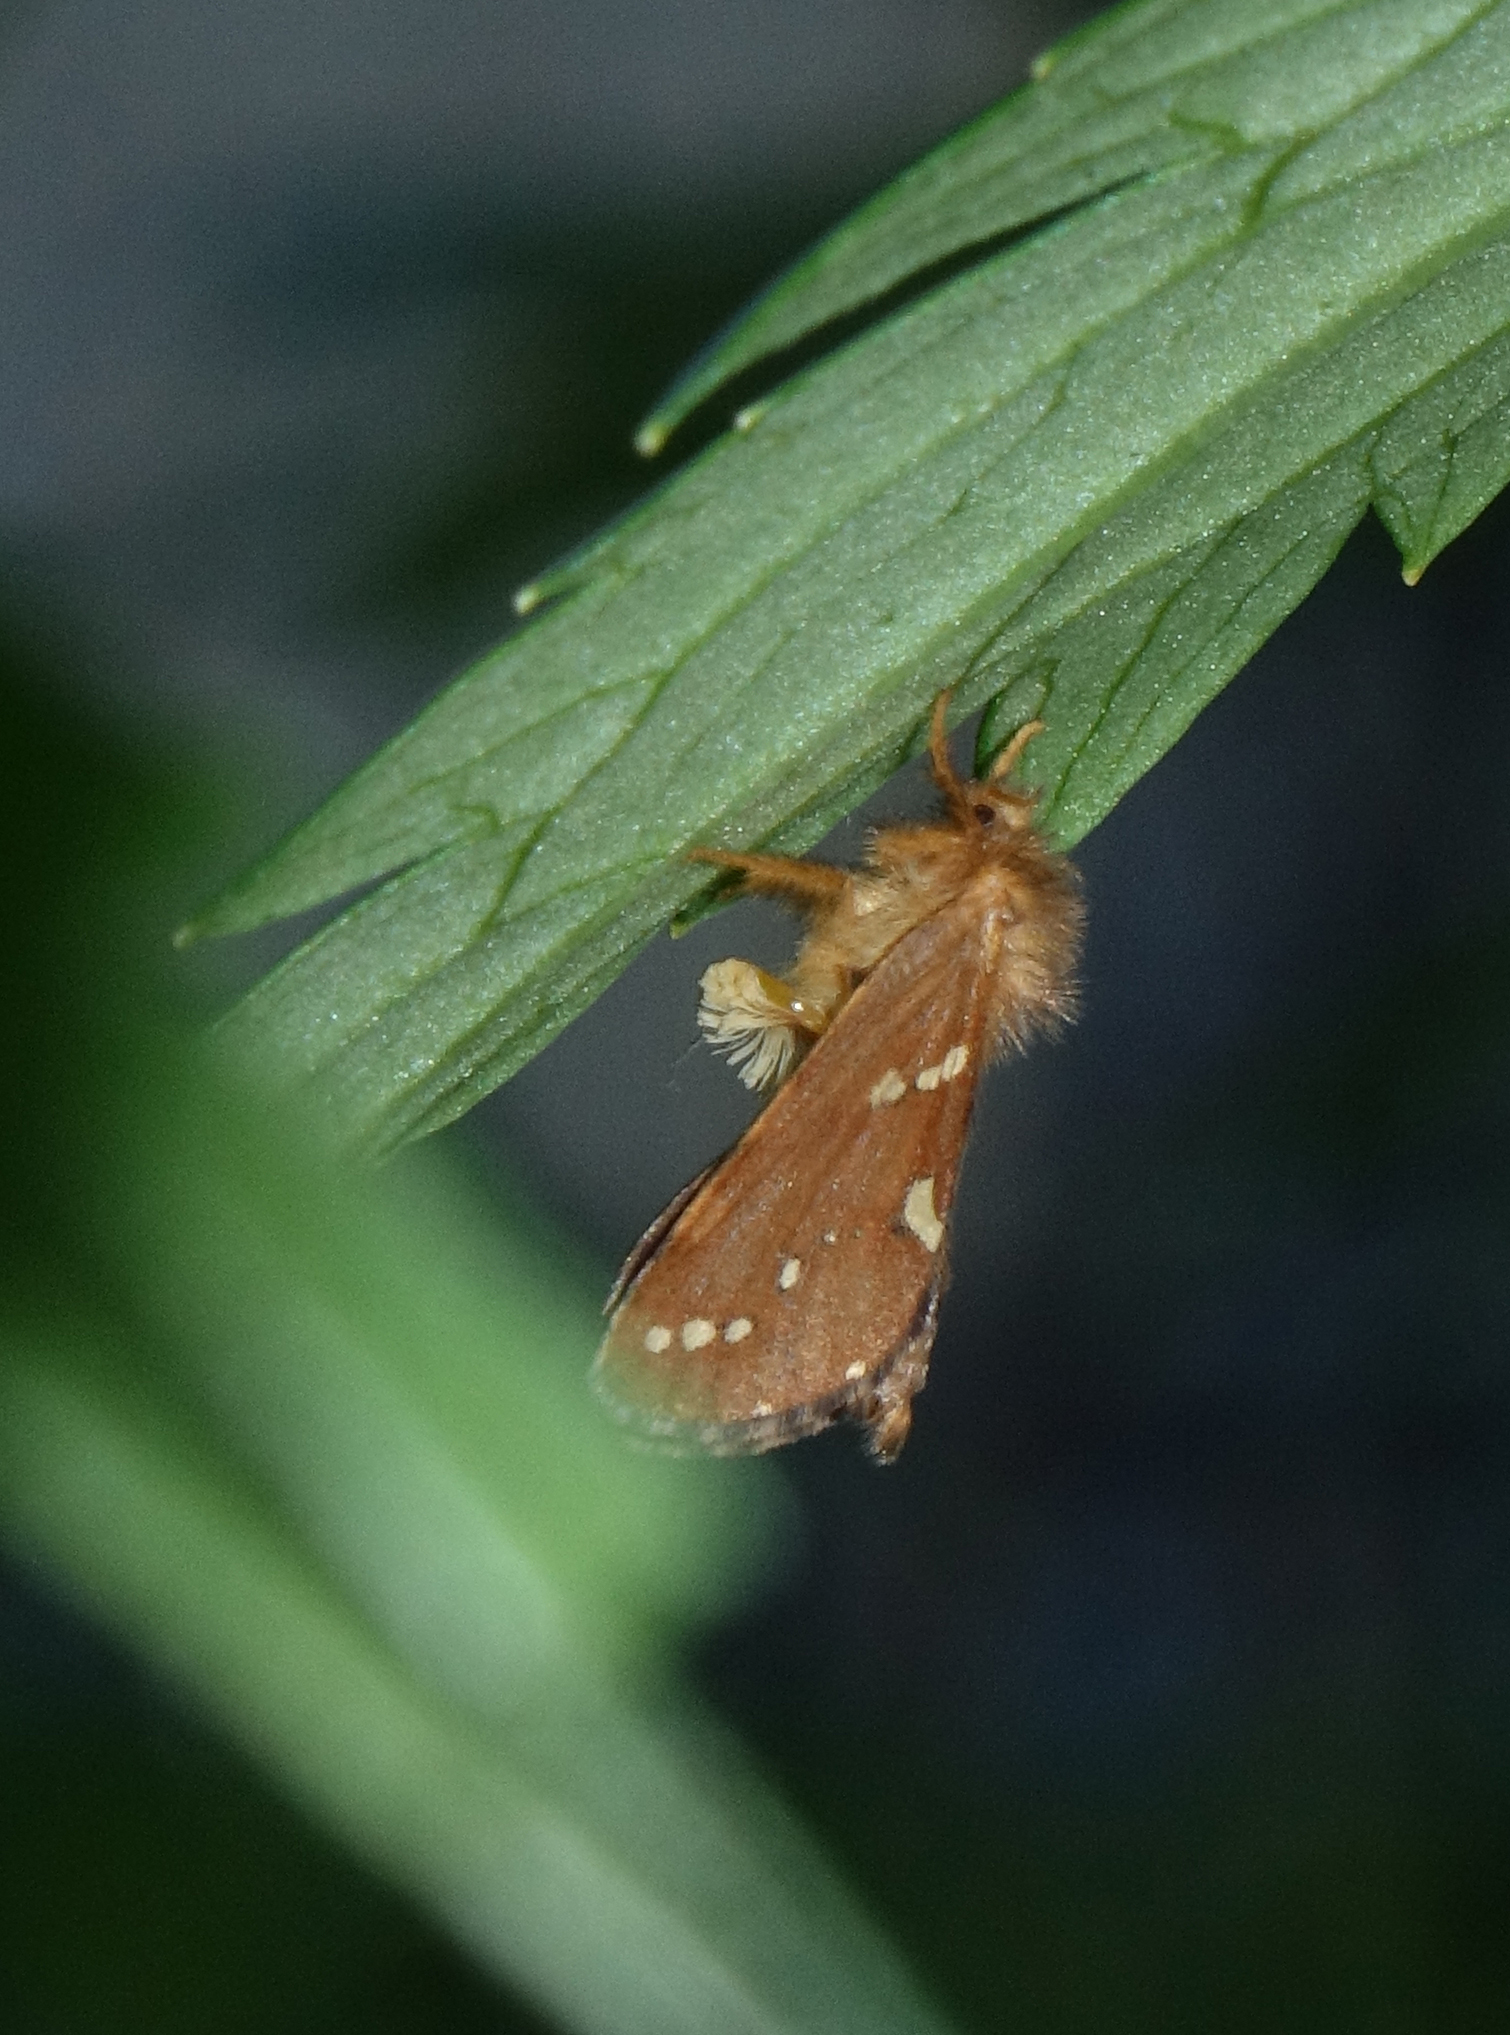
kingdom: Animalia
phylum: Arthropoda
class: Insecta
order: Lepidoptera
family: Hepialidae
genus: Phymatopus
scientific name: Phymatopus hecta
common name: Gold swift
